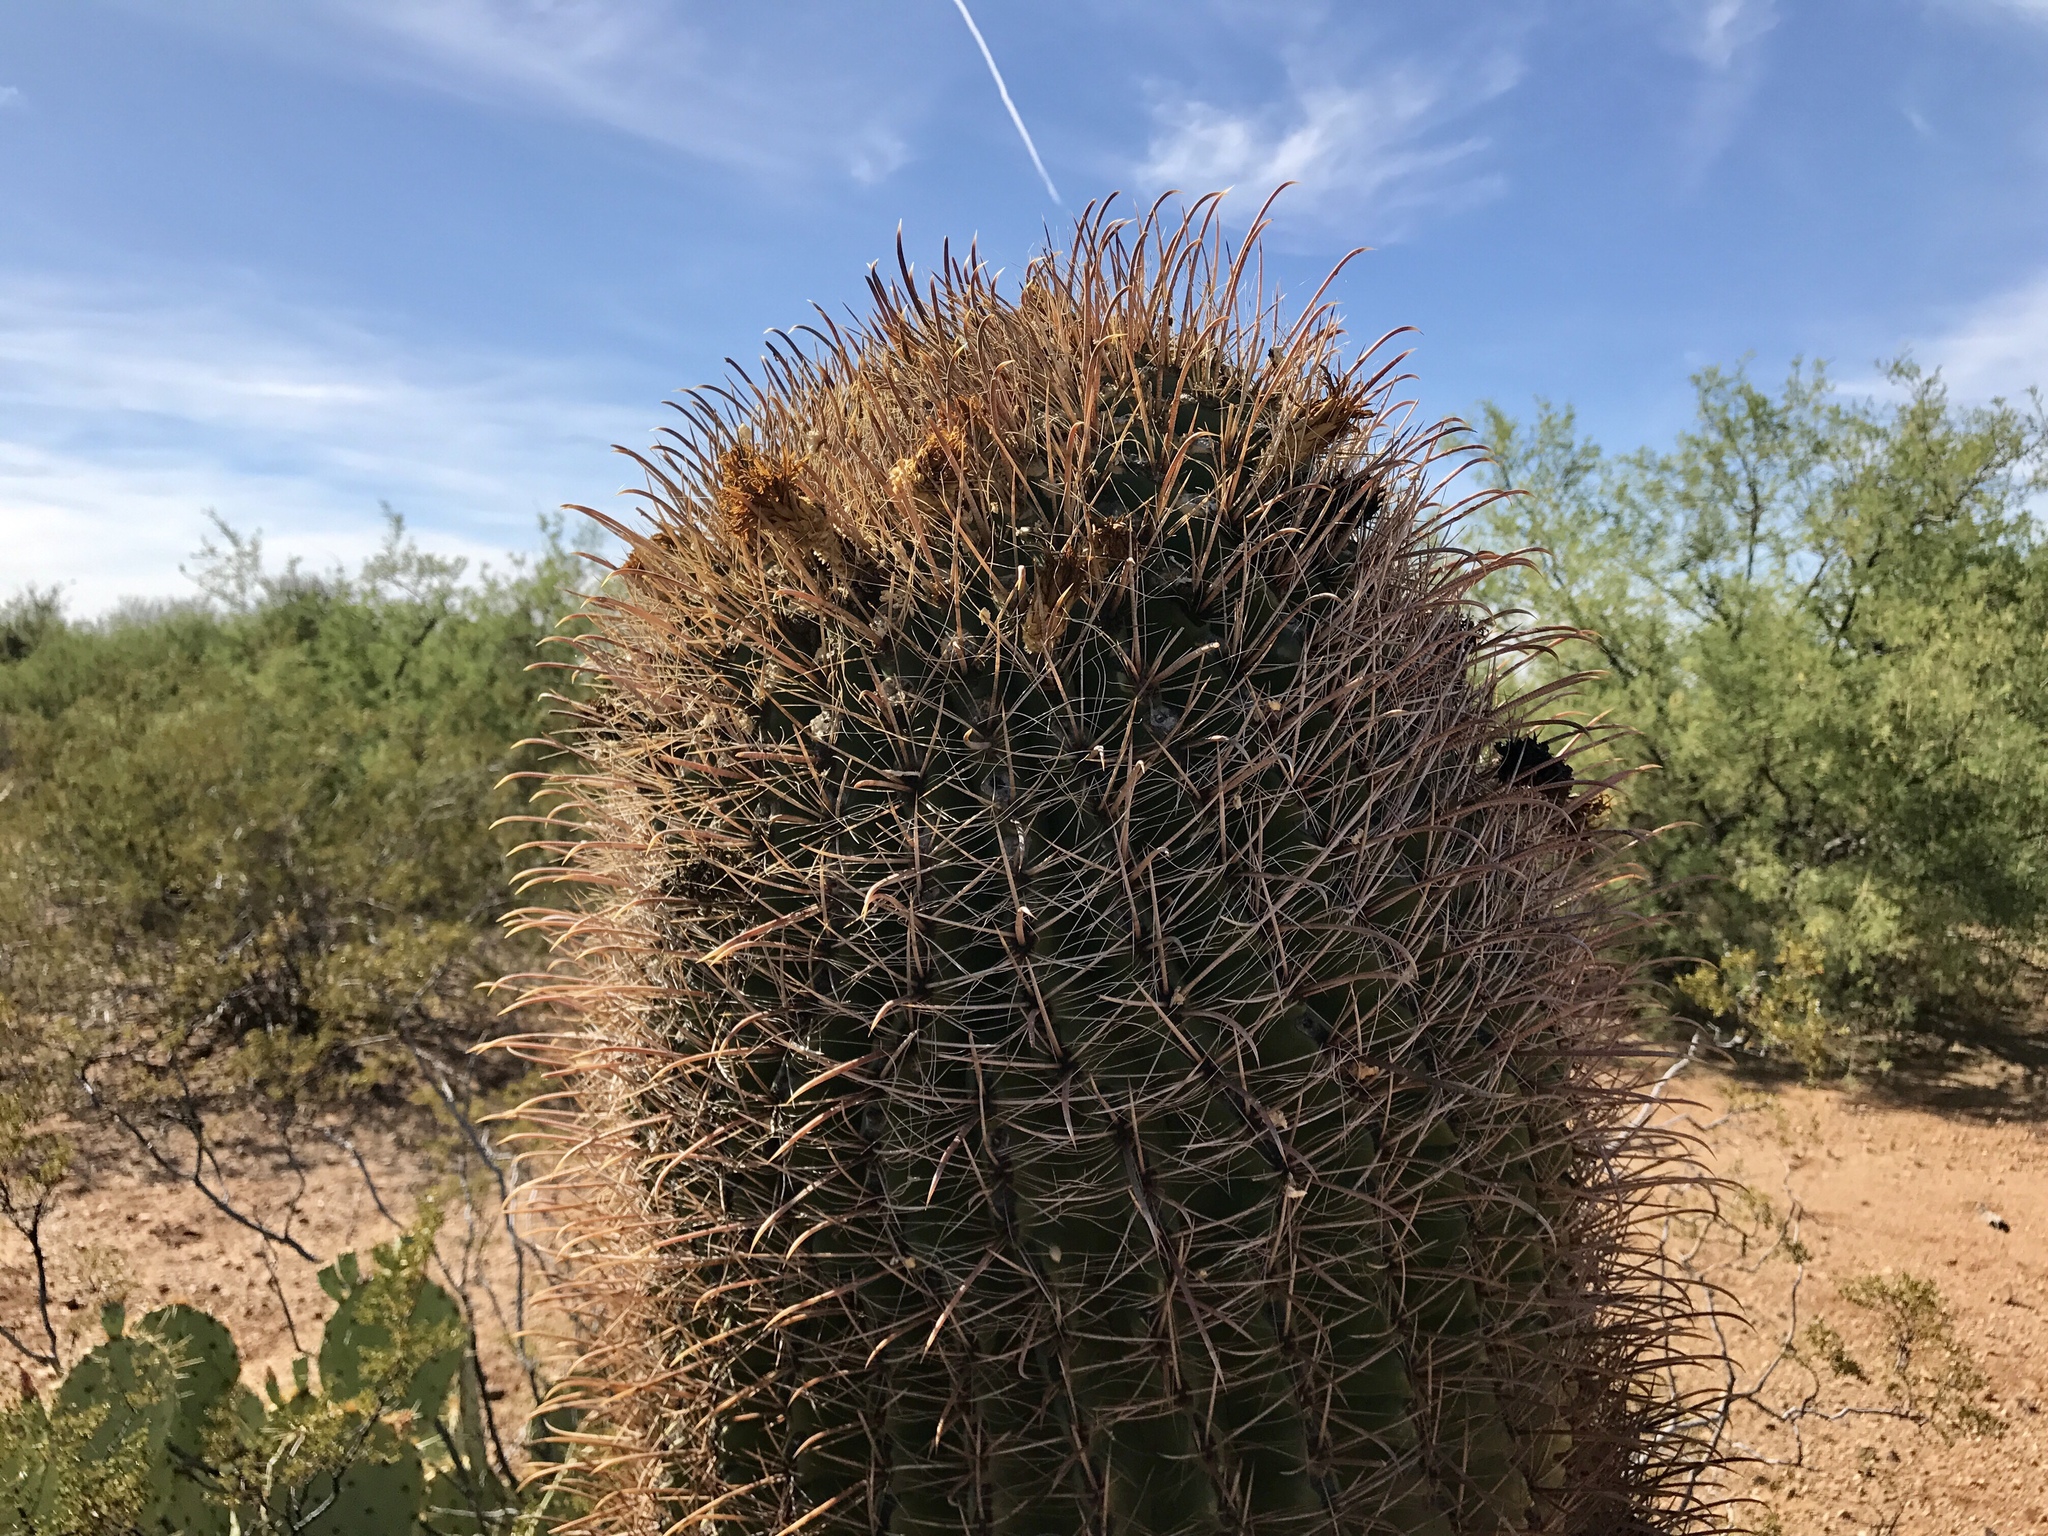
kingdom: Plantae
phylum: Tracheophyta
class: Magnoliopsida
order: Caryophyllales
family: Cactaceae
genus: Ferocactus
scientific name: Ferocactus wislizeni
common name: Candy barrel cactus
